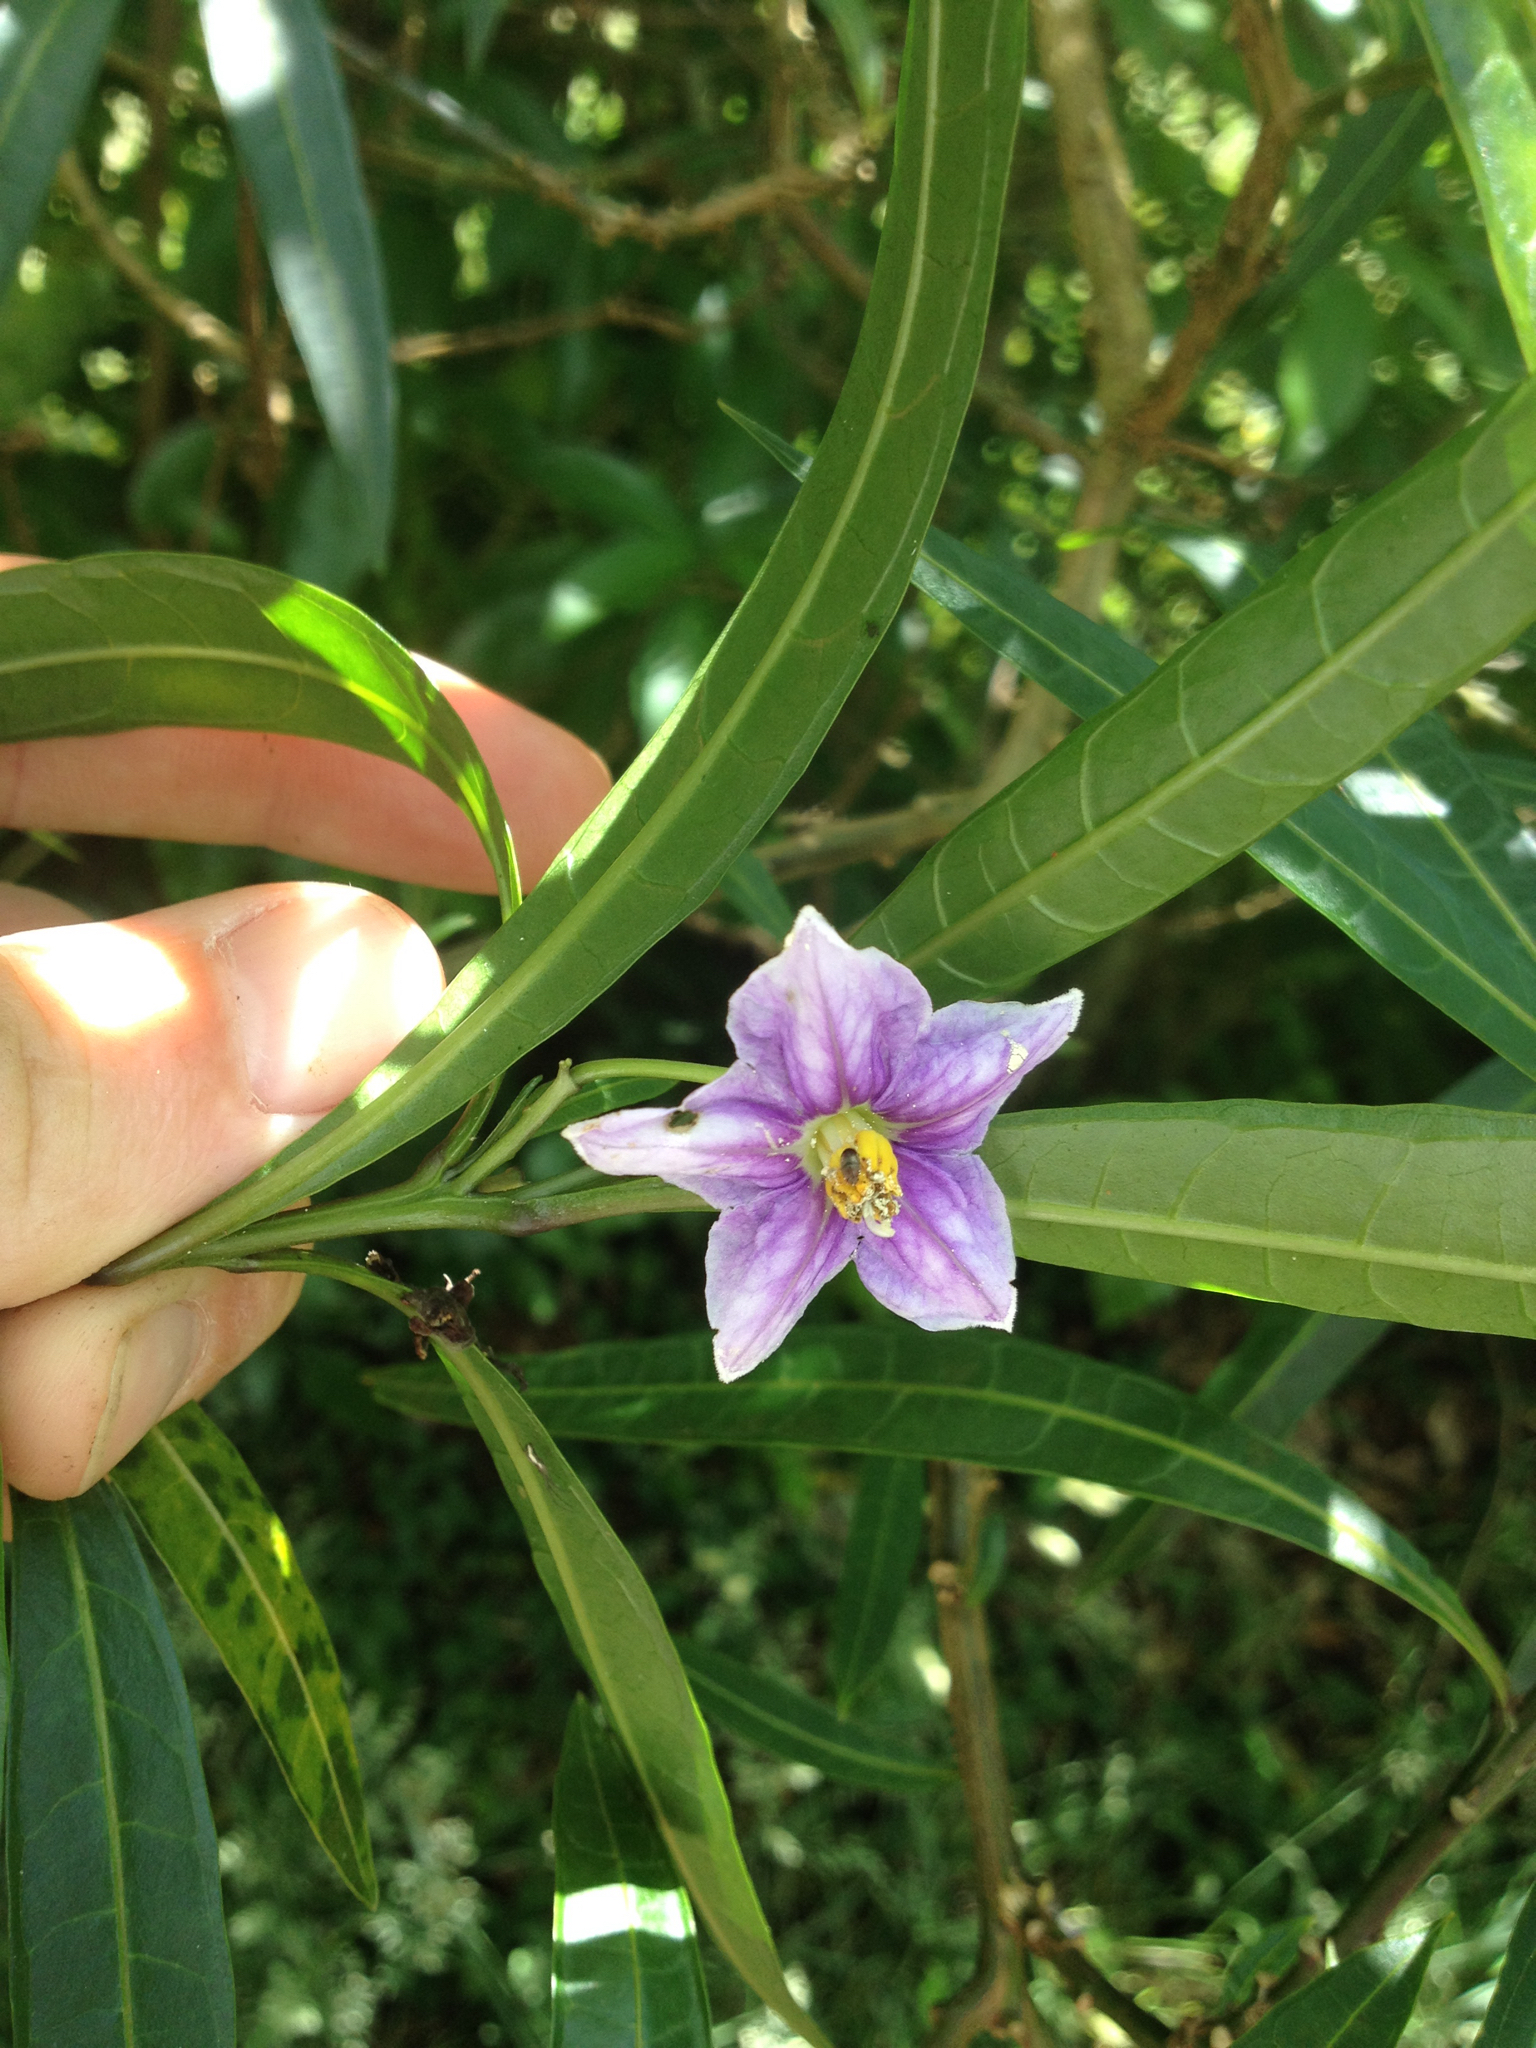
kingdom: Plantae
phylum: Tracheophyta
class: Magnoliopsida
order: Solanales
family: Solanaceae
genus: Solanum
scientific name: Solanum aviculare
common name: New zealand nightshade
